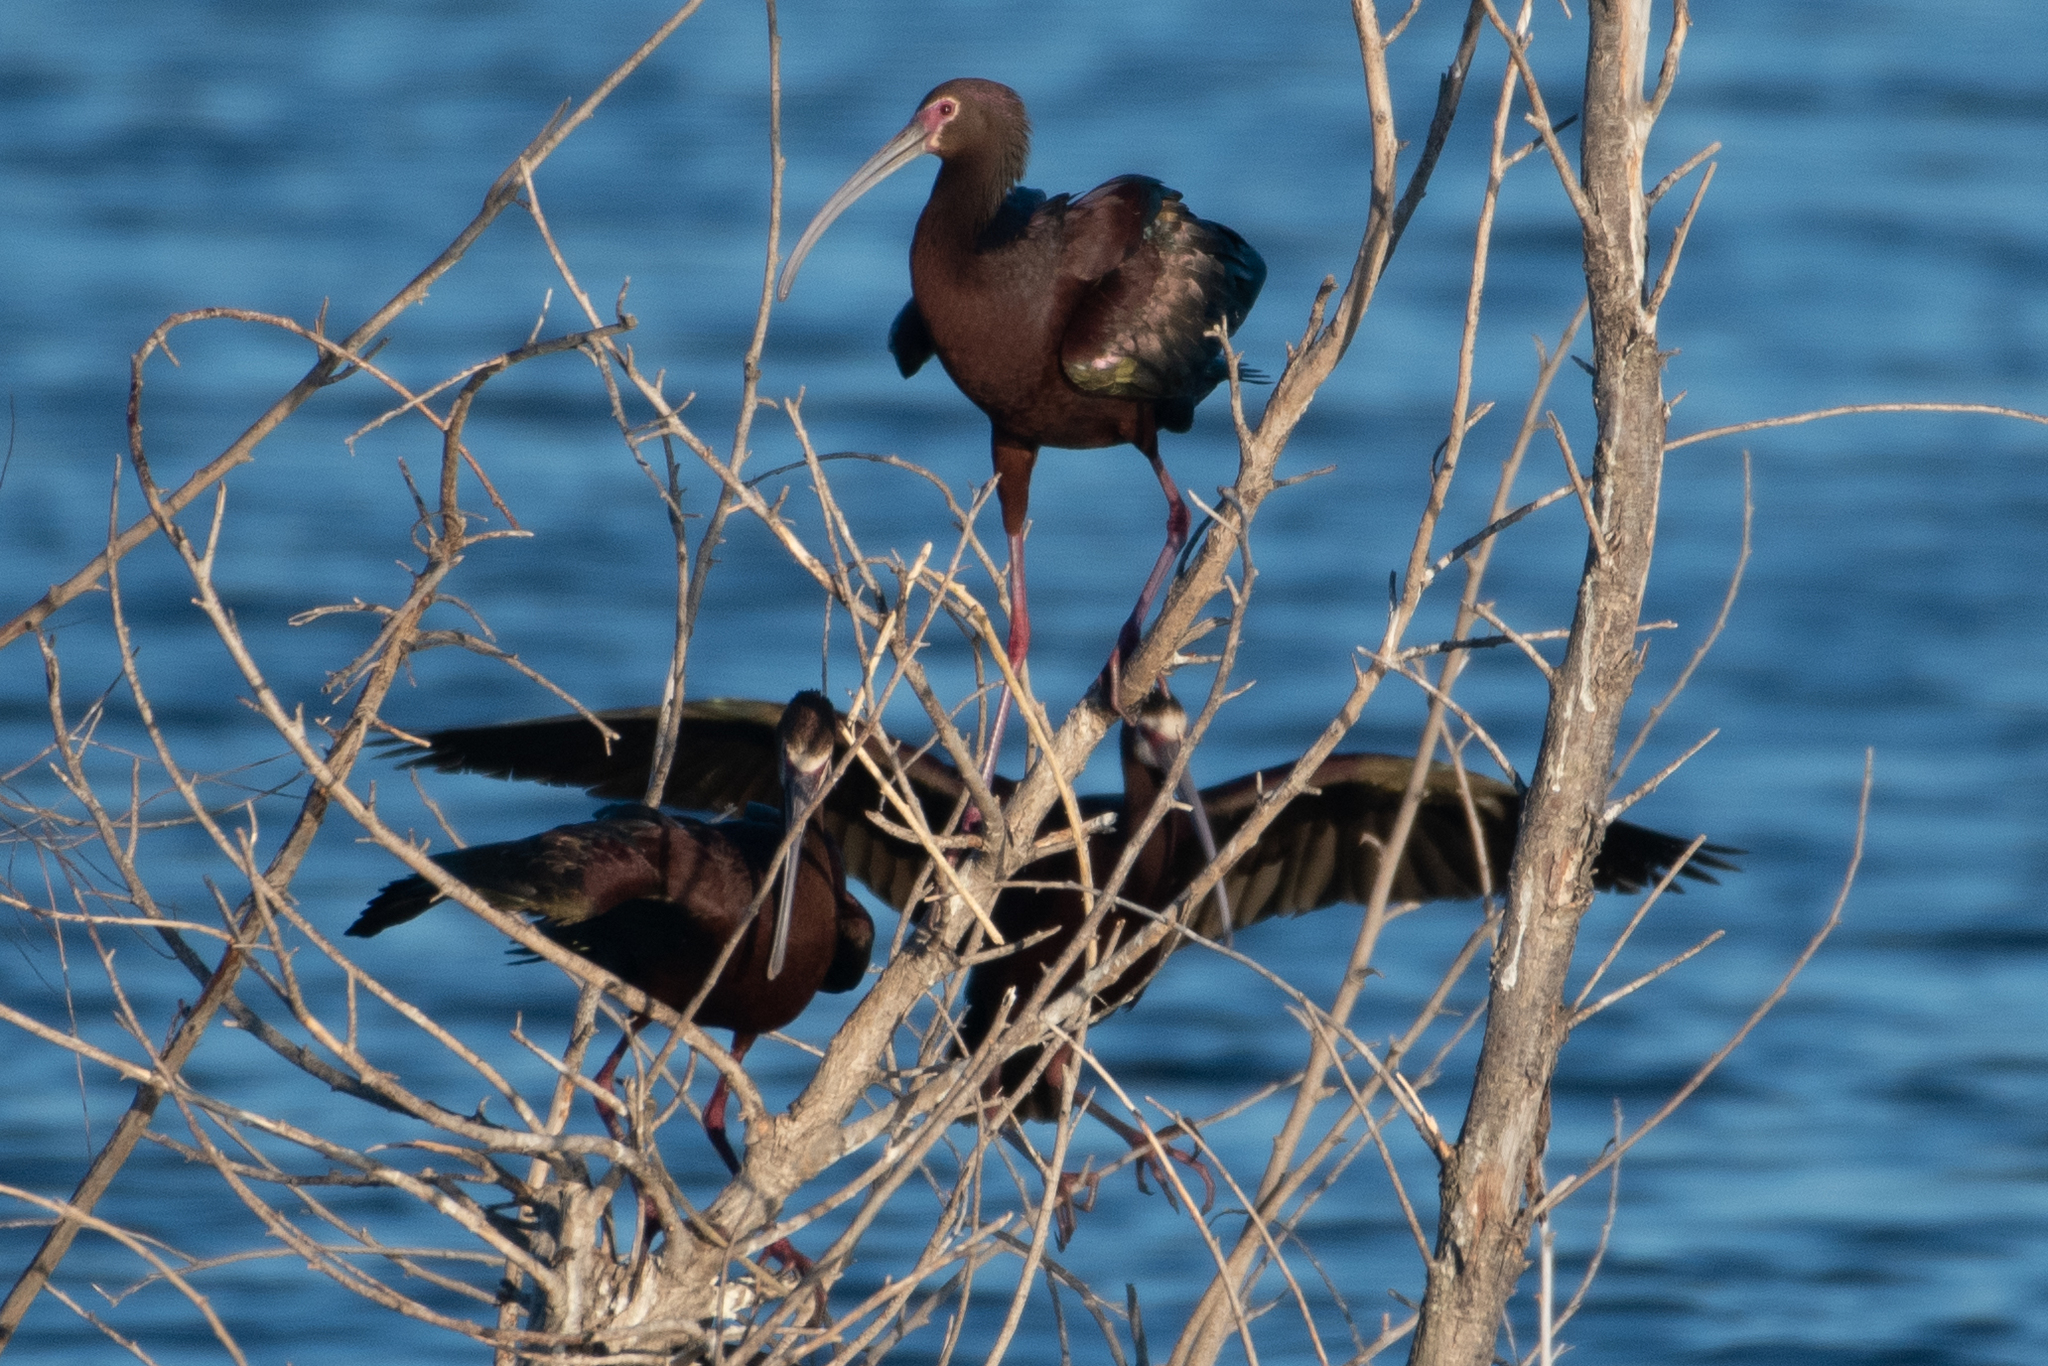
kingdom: Animalia
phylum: Chordata
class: Aves
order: Pelecaniformes
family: Threskiornithidae
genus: Plegadis
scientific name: Plegadis chihi
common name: White-faced ibis
